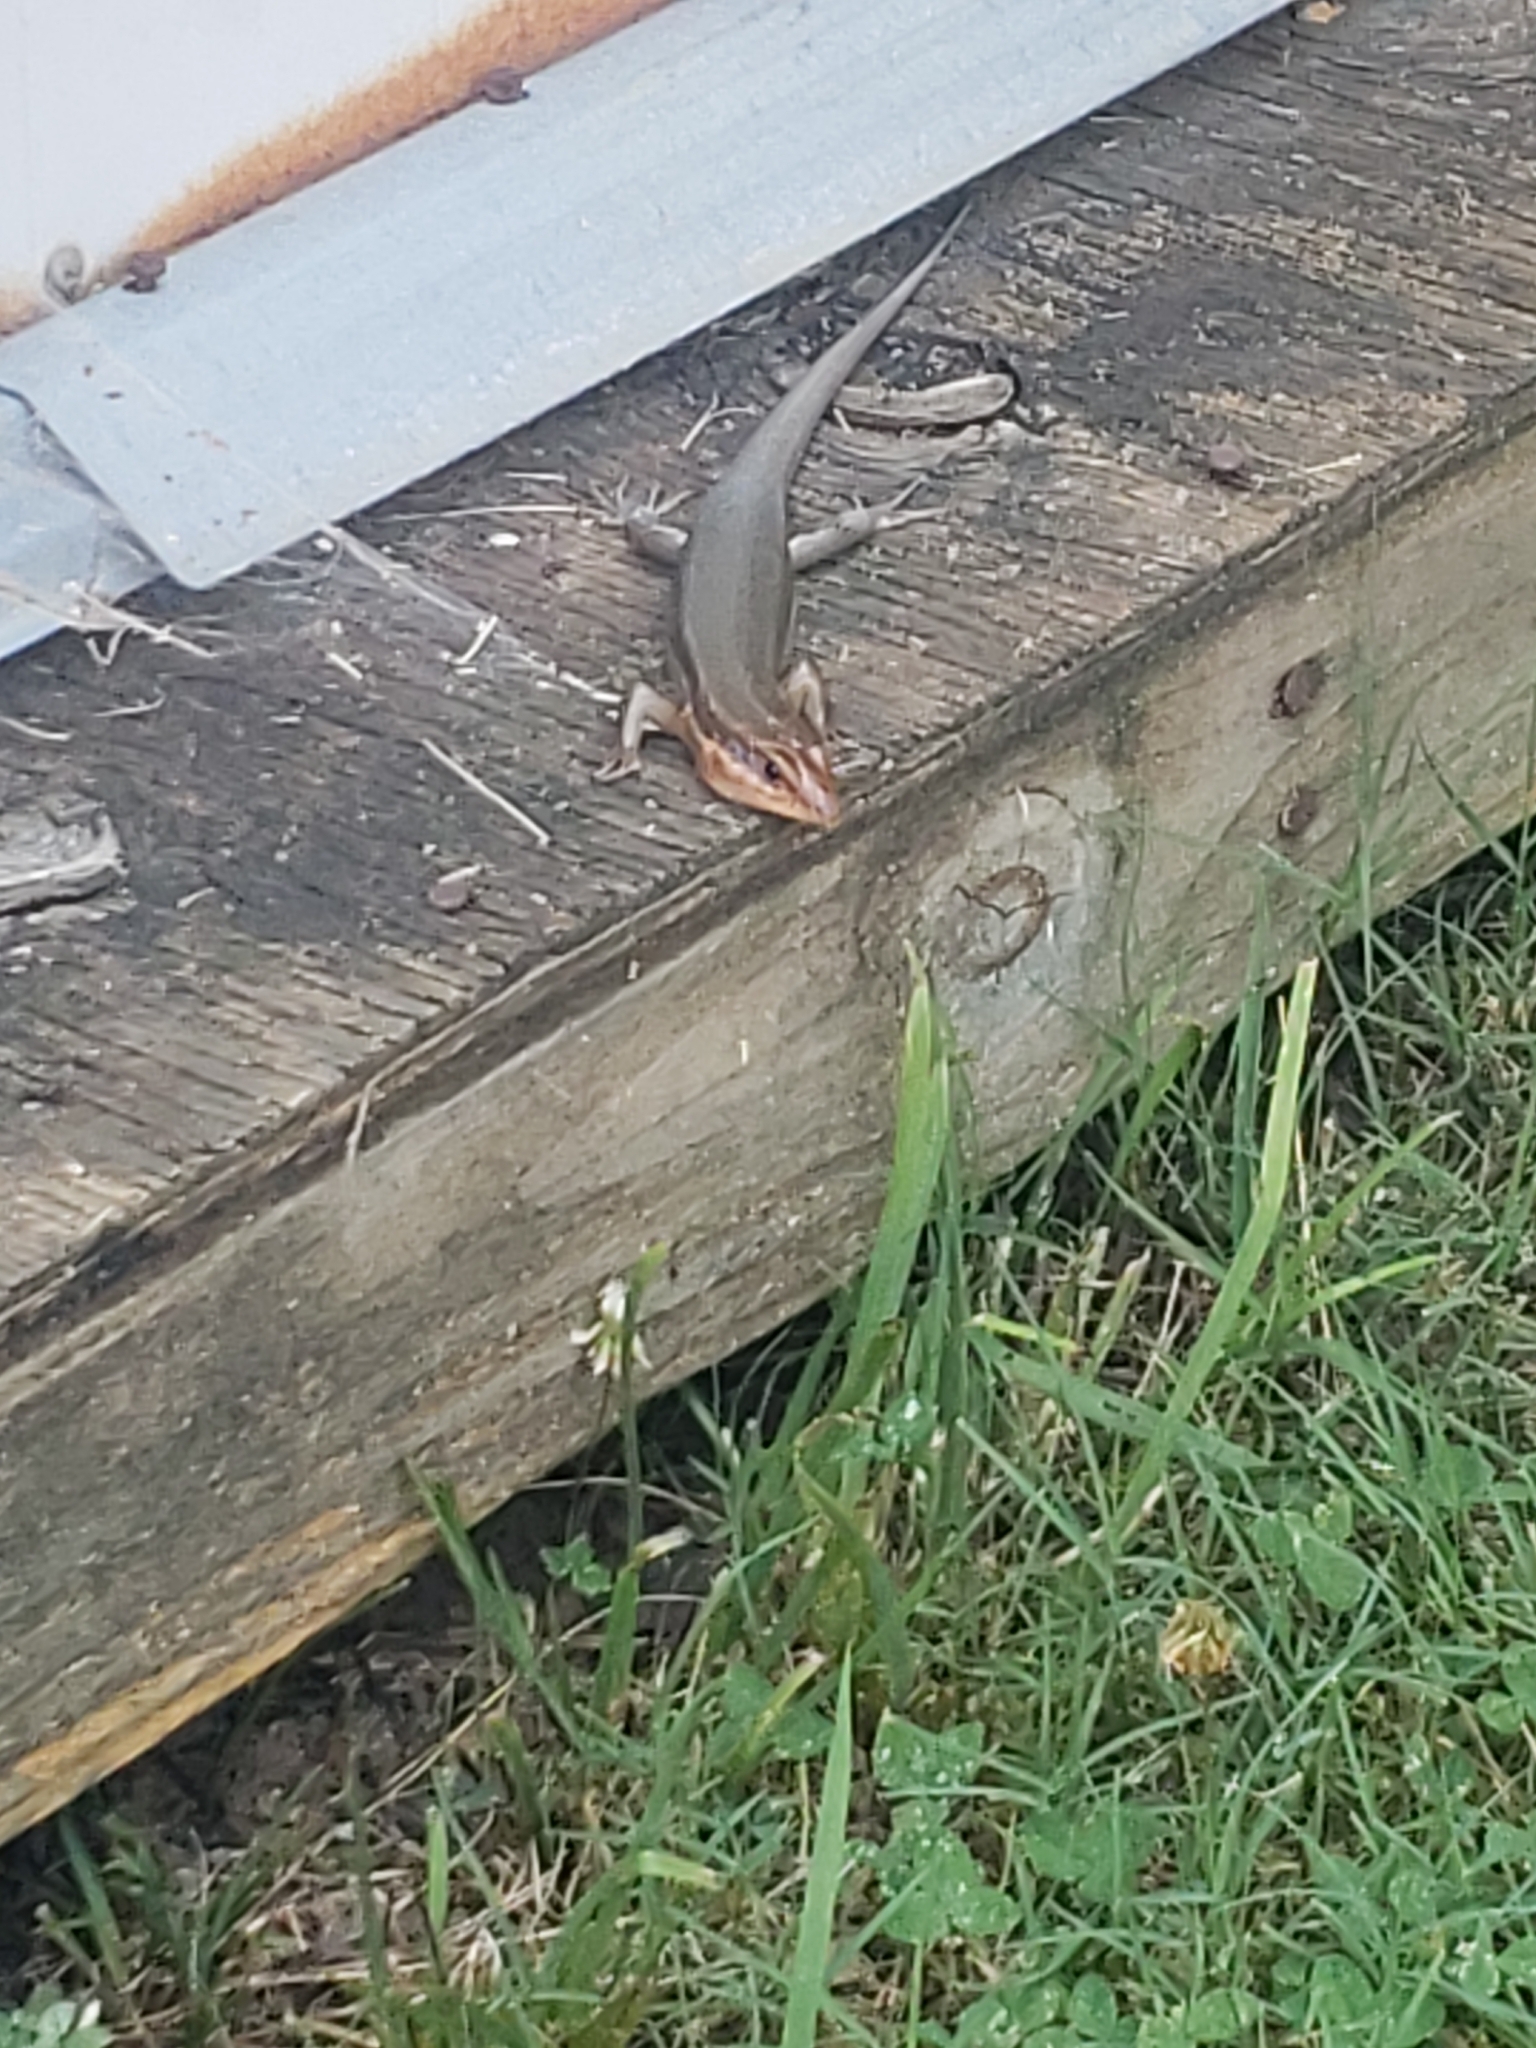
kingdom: Animalia
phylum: Chordata
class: Squamata
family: Scincidae
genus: Plestiodon
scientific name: Plestiodon laticeps
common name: Broadhead skink
